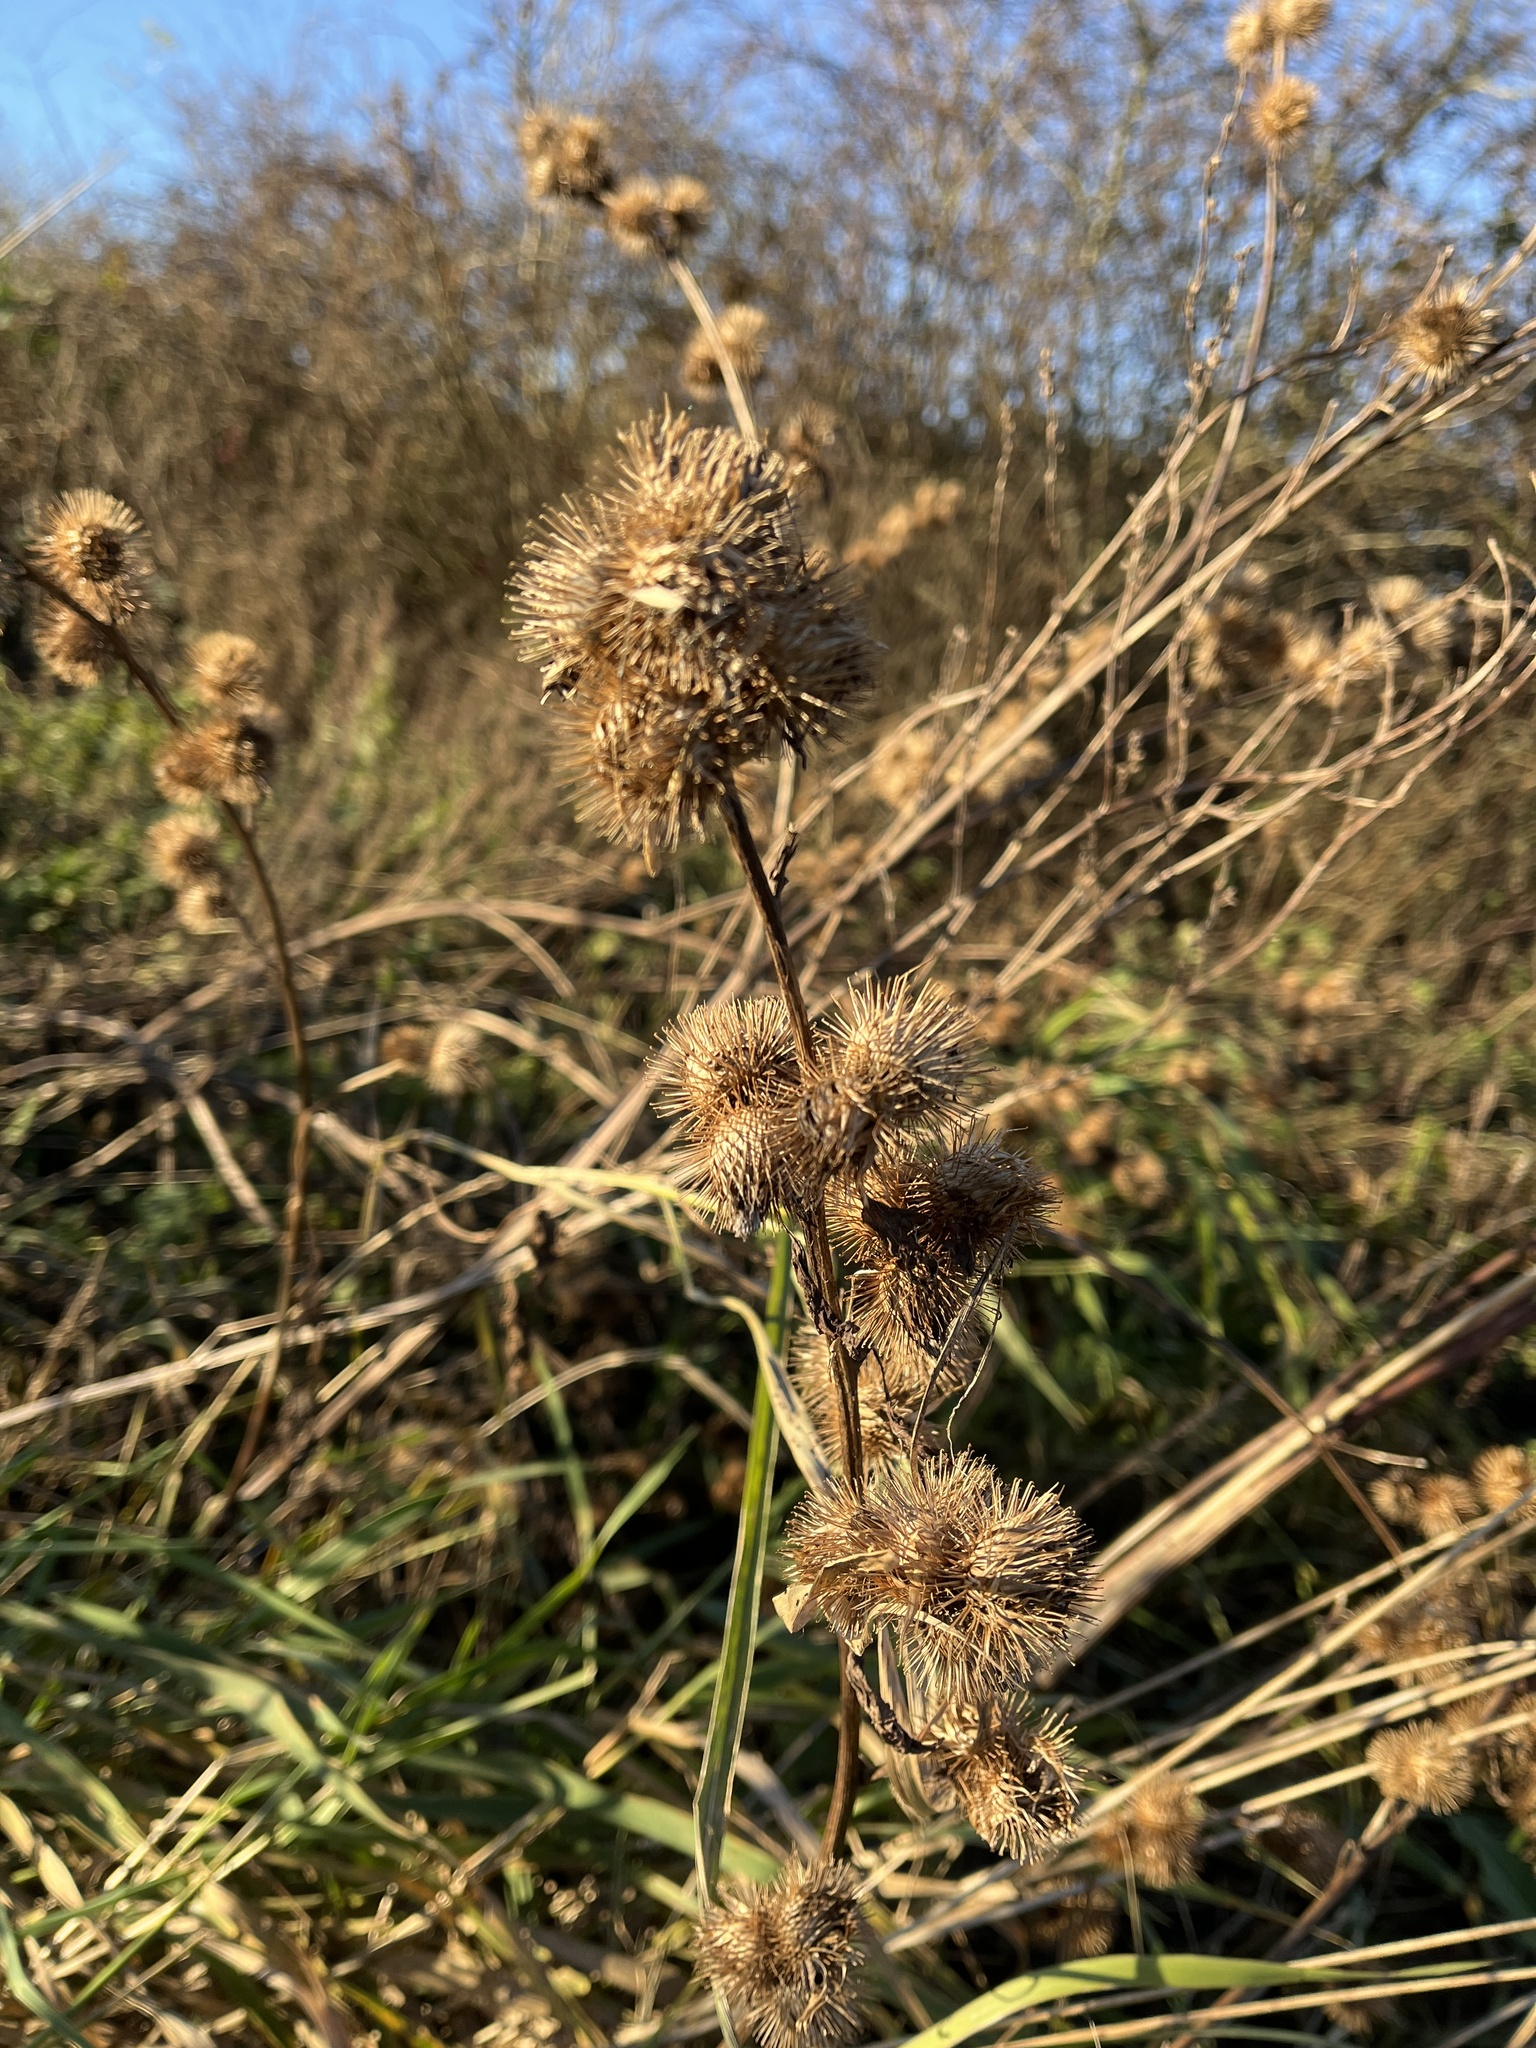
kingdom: Plantae
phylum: Tracheophyta
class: Magnoliopsida
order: Asterales
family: Asteraceae
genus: Arctium
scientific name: Arctium minus
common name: Lesser burdock
